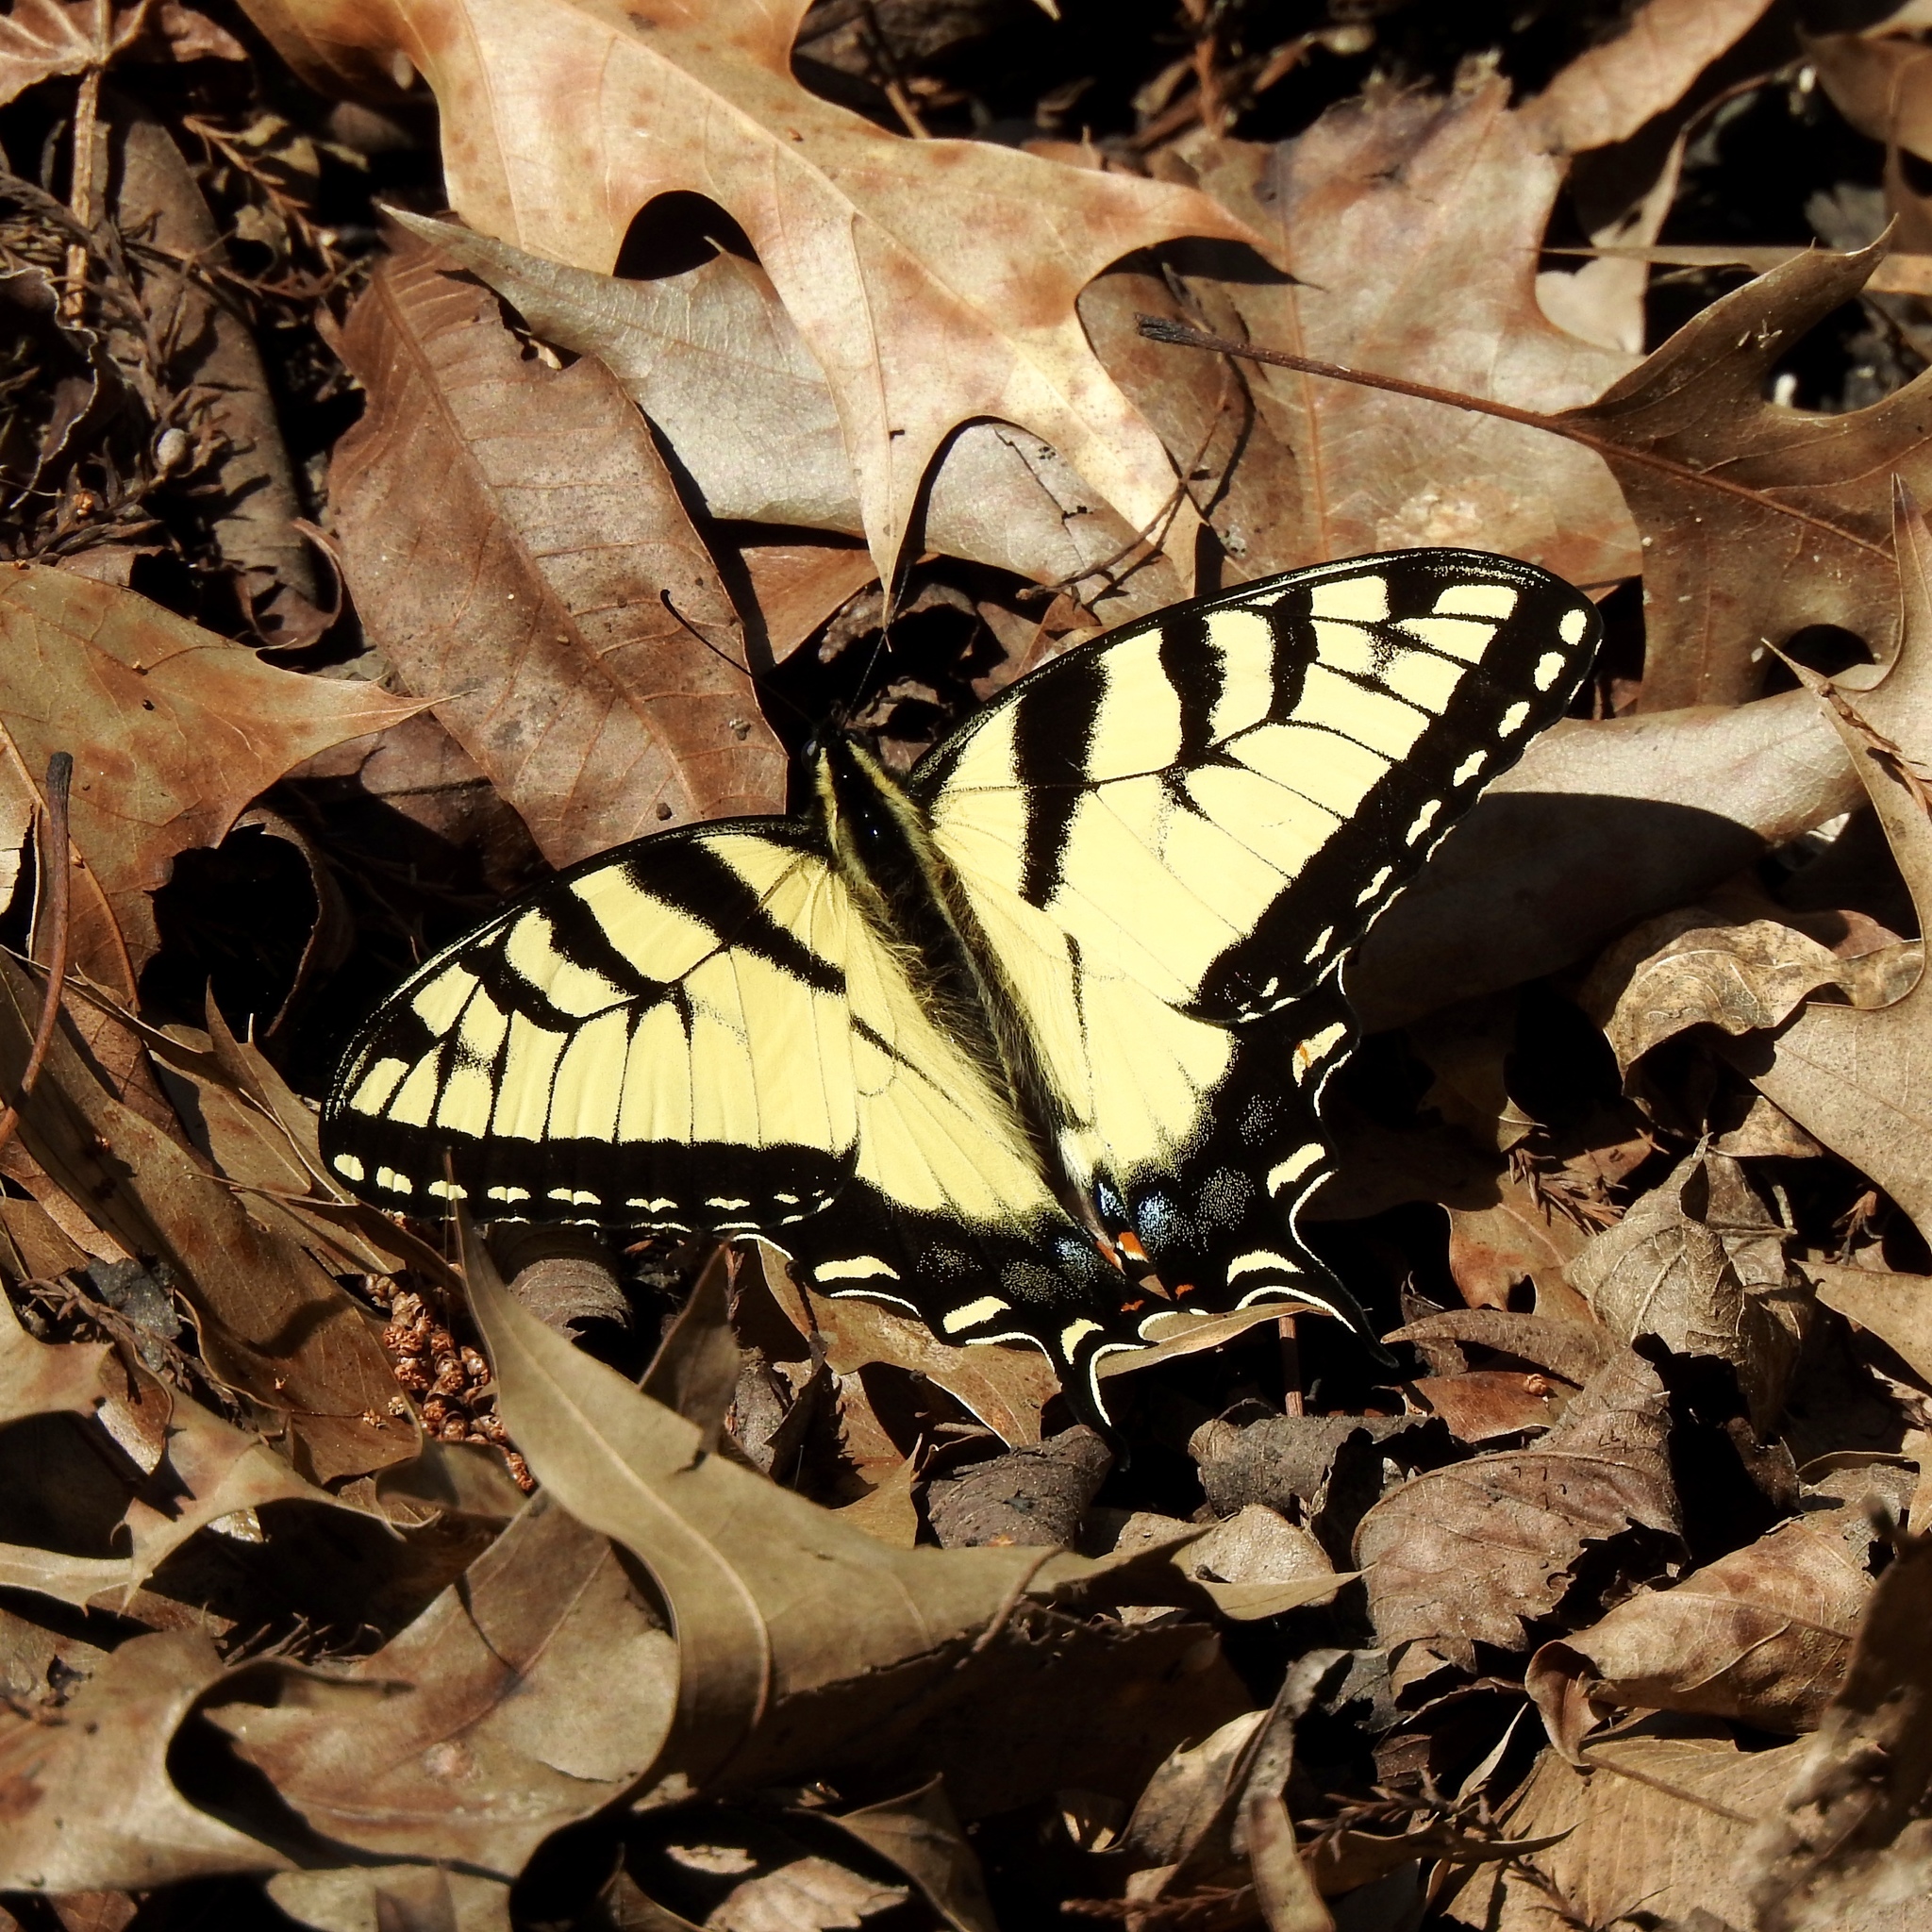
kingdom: Animalia
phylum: Arthropoda
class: Insecta
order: Lepidoptera
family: Papilionidae
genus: Papilio
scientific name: Papilio glaucus
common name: Tiger swallowtail
